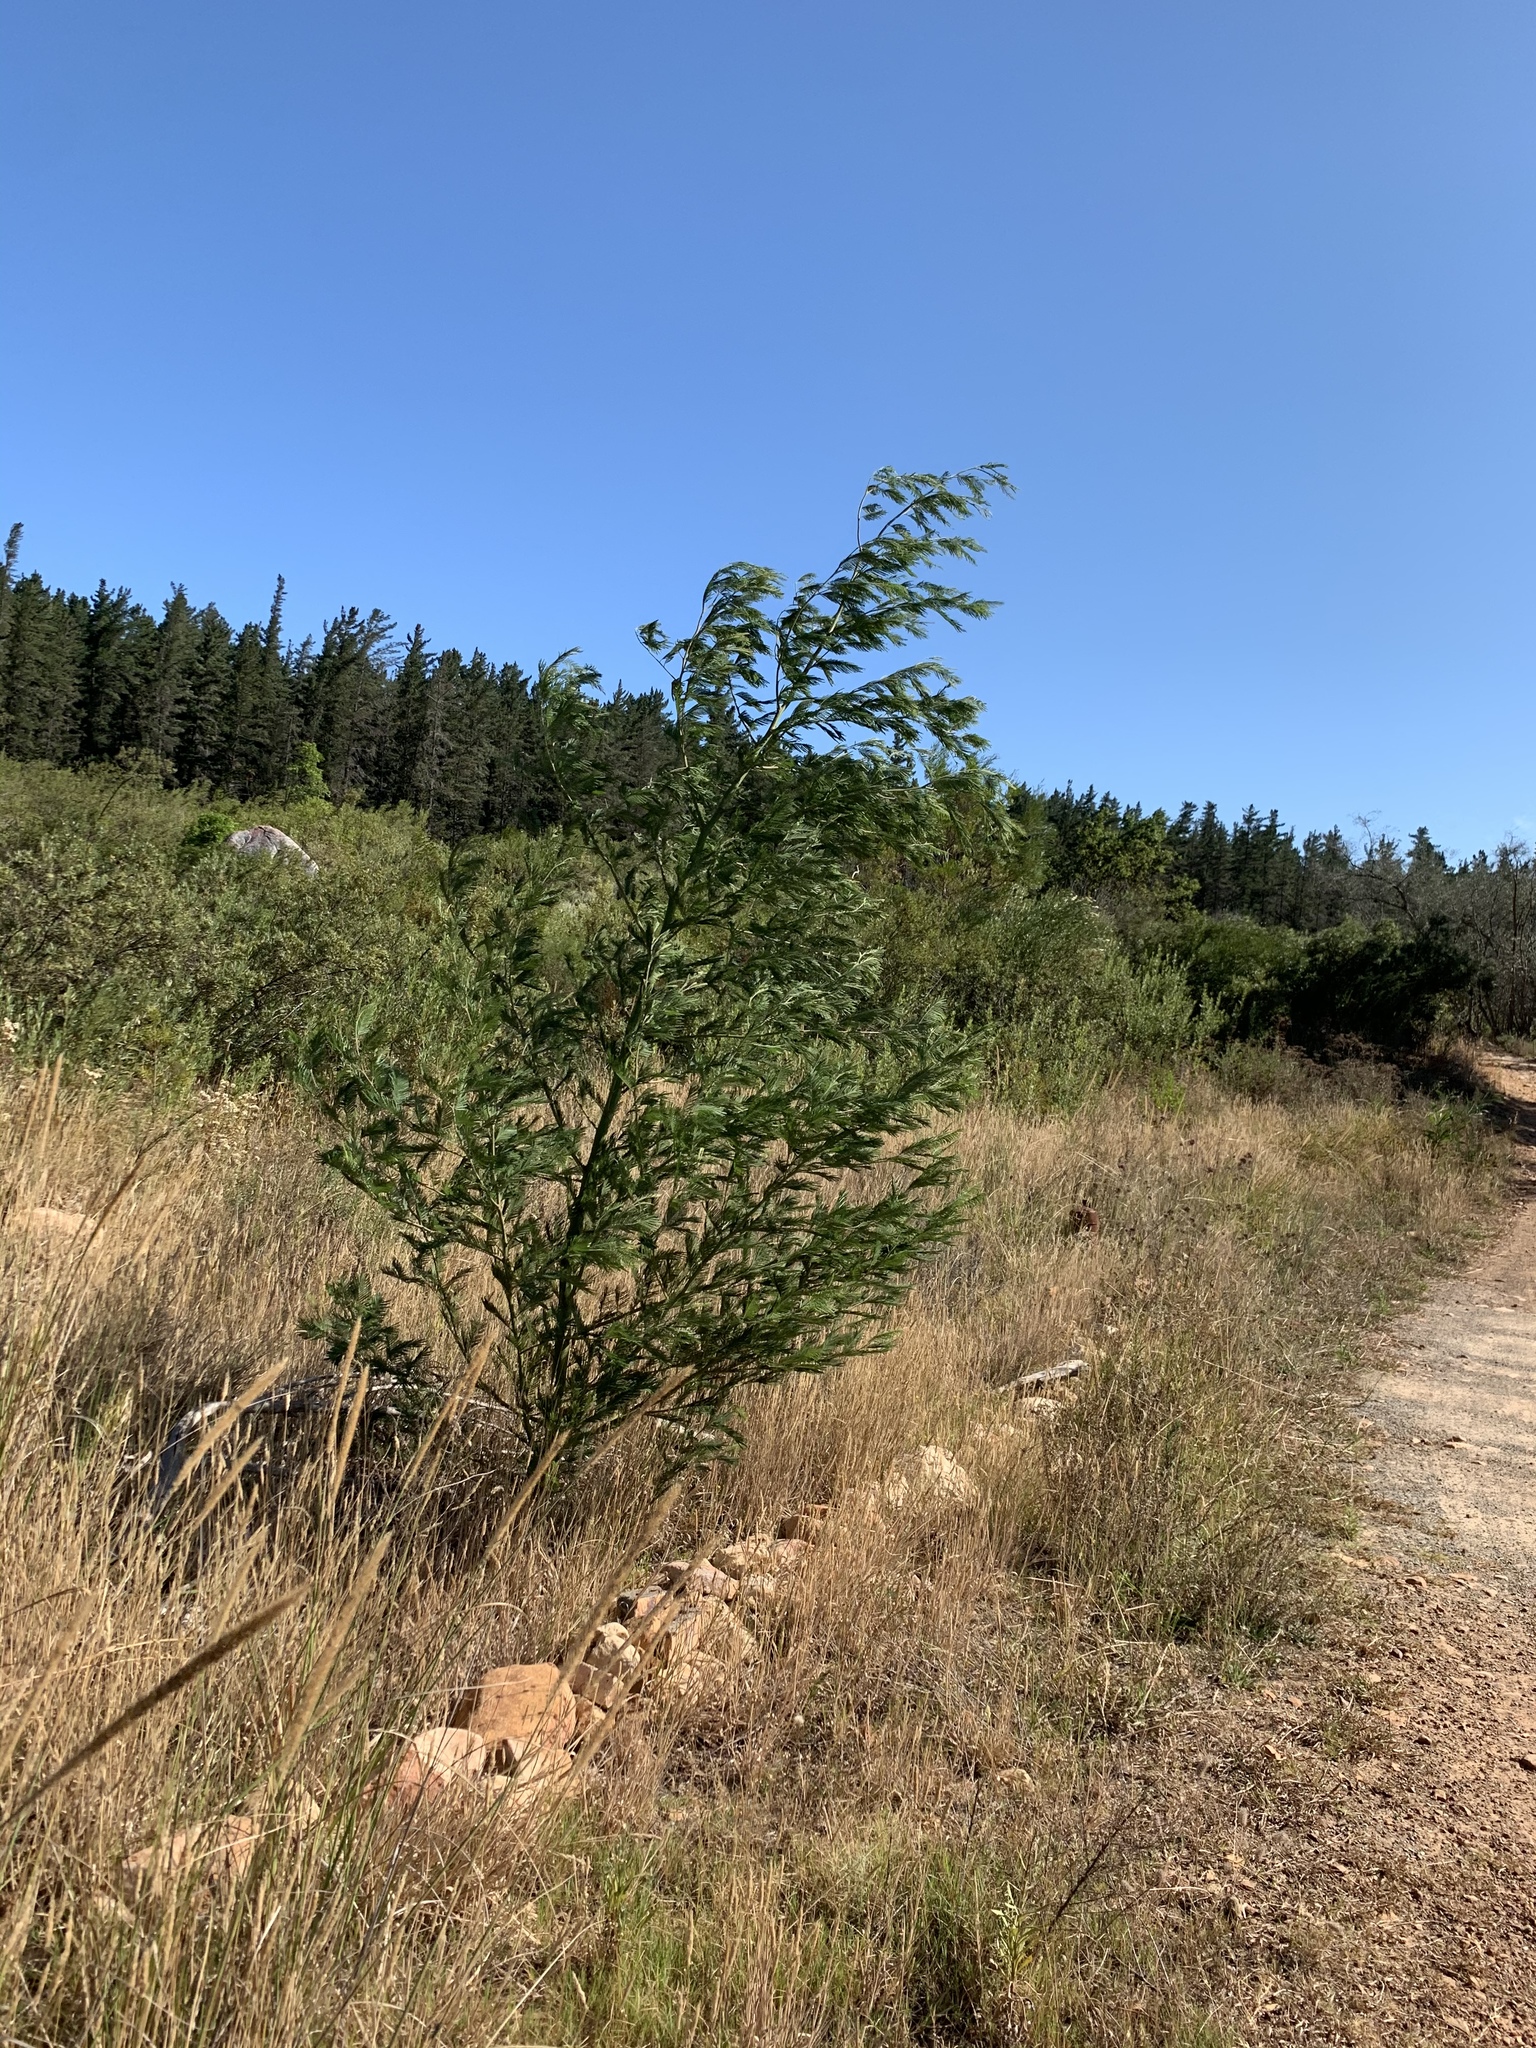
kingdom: Plantae
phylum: Tracheophyta
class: Magnoliopsida
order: Fabales
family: Fabaceae
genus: Acacia
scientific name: Acacia mearnsii
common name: Black wattle
